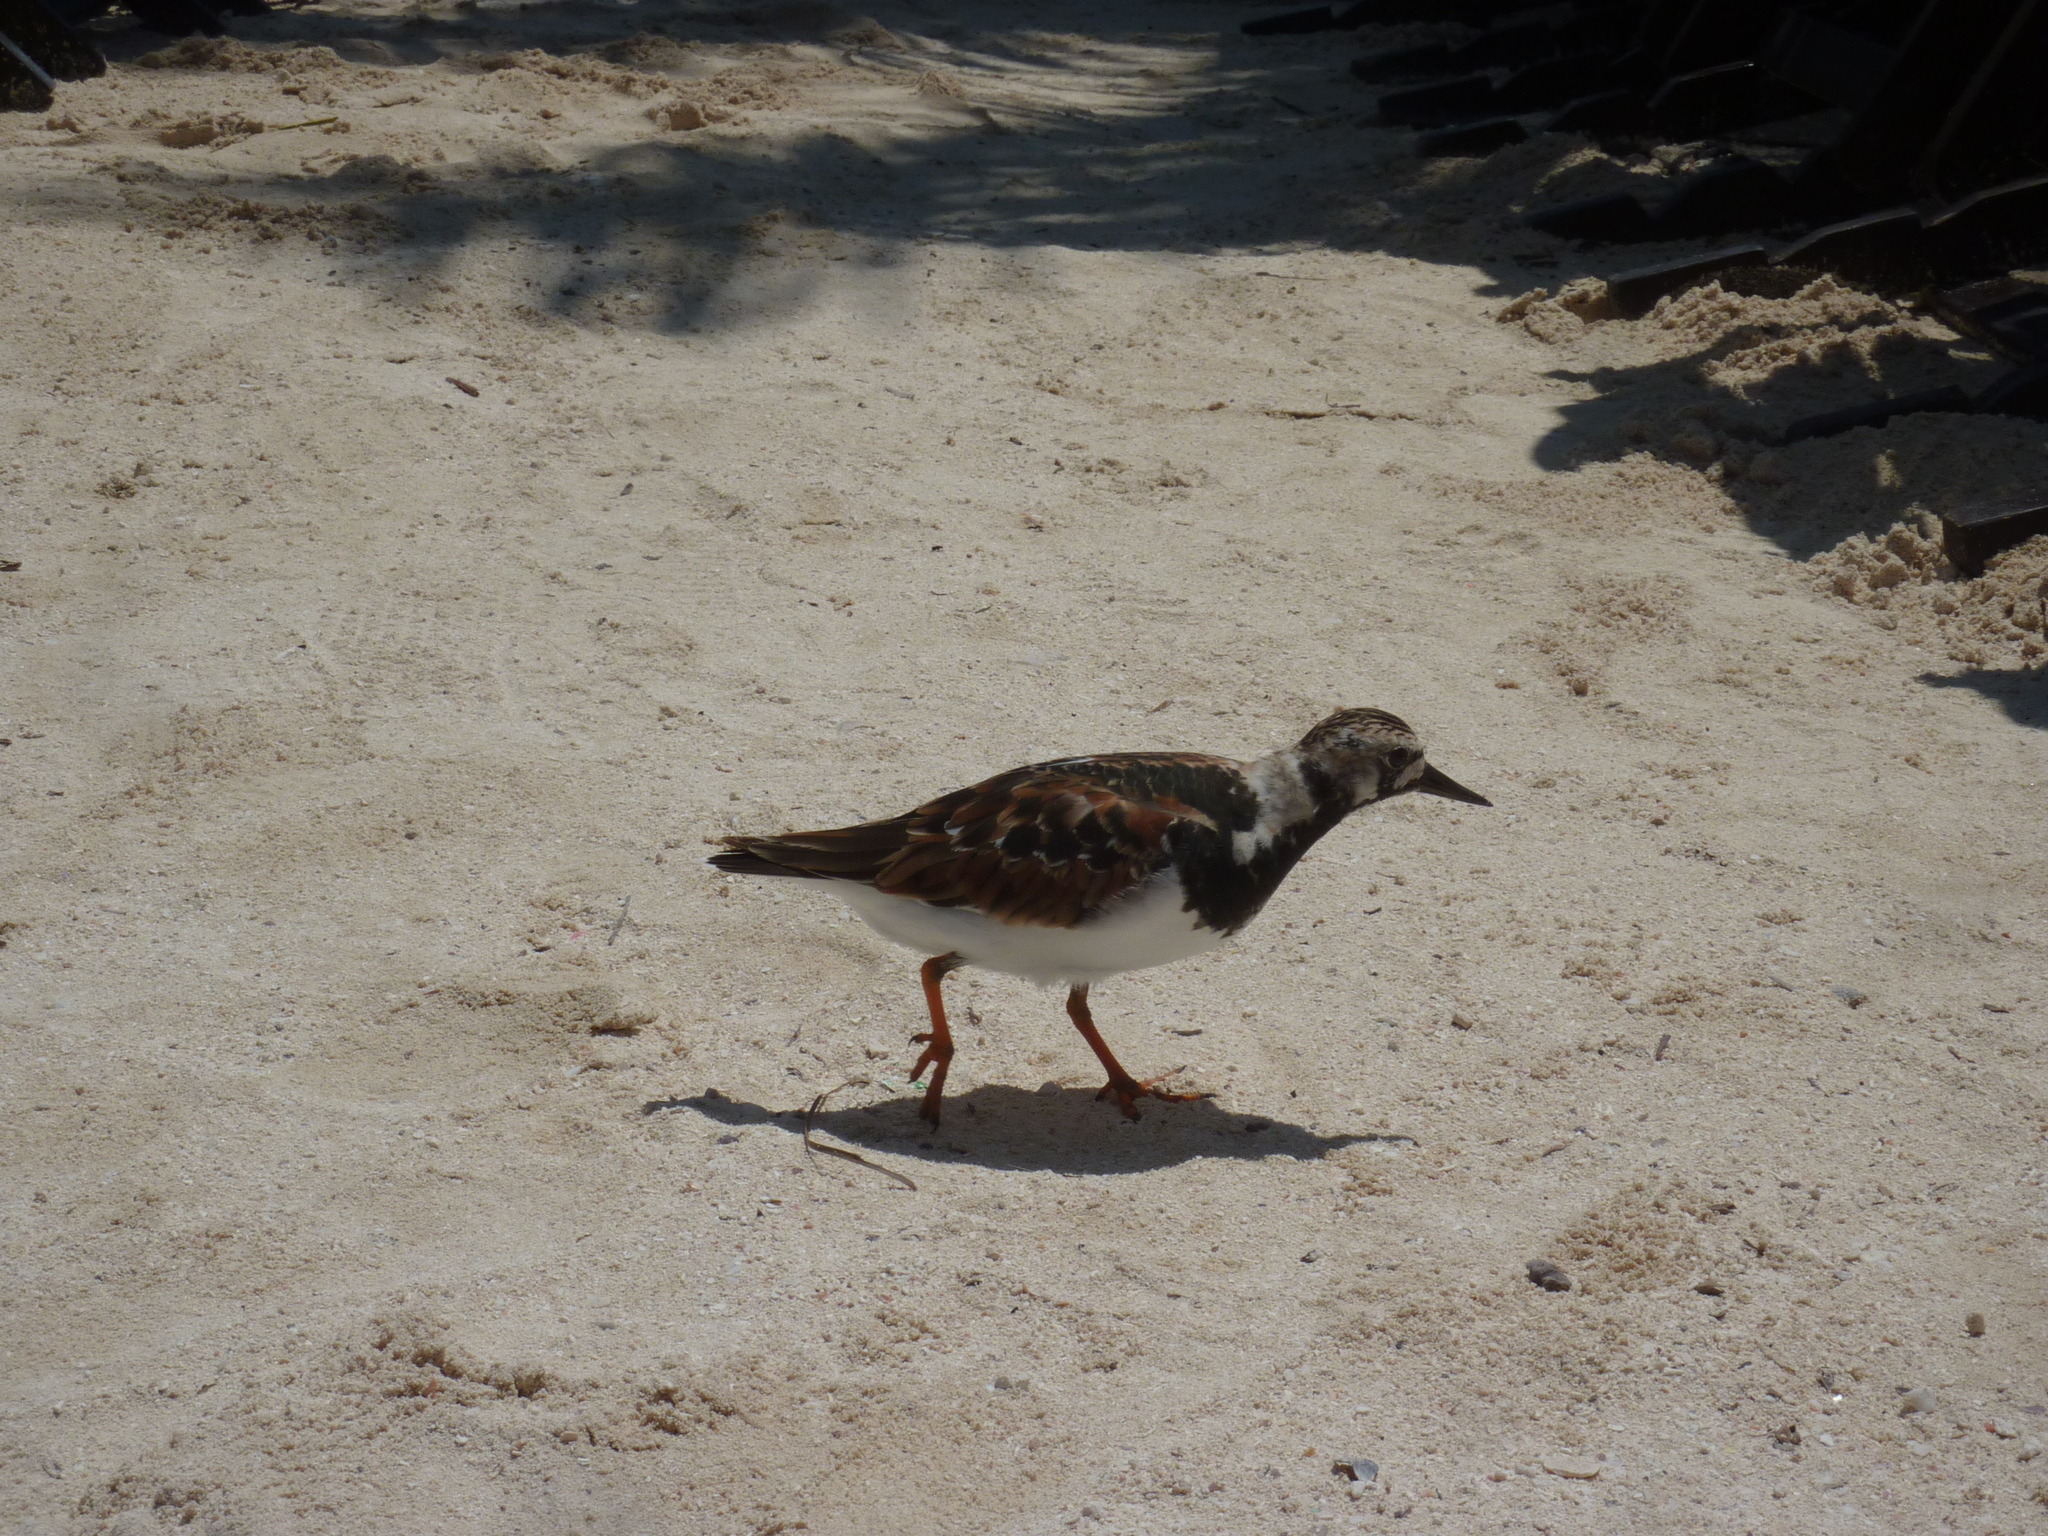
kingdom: Animalia
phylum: Chordata
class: Aves
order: Charadriiformes
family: Scolopacidae
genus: Arenaria
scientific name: Arenaria interpres
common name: Ruddy turnstone
